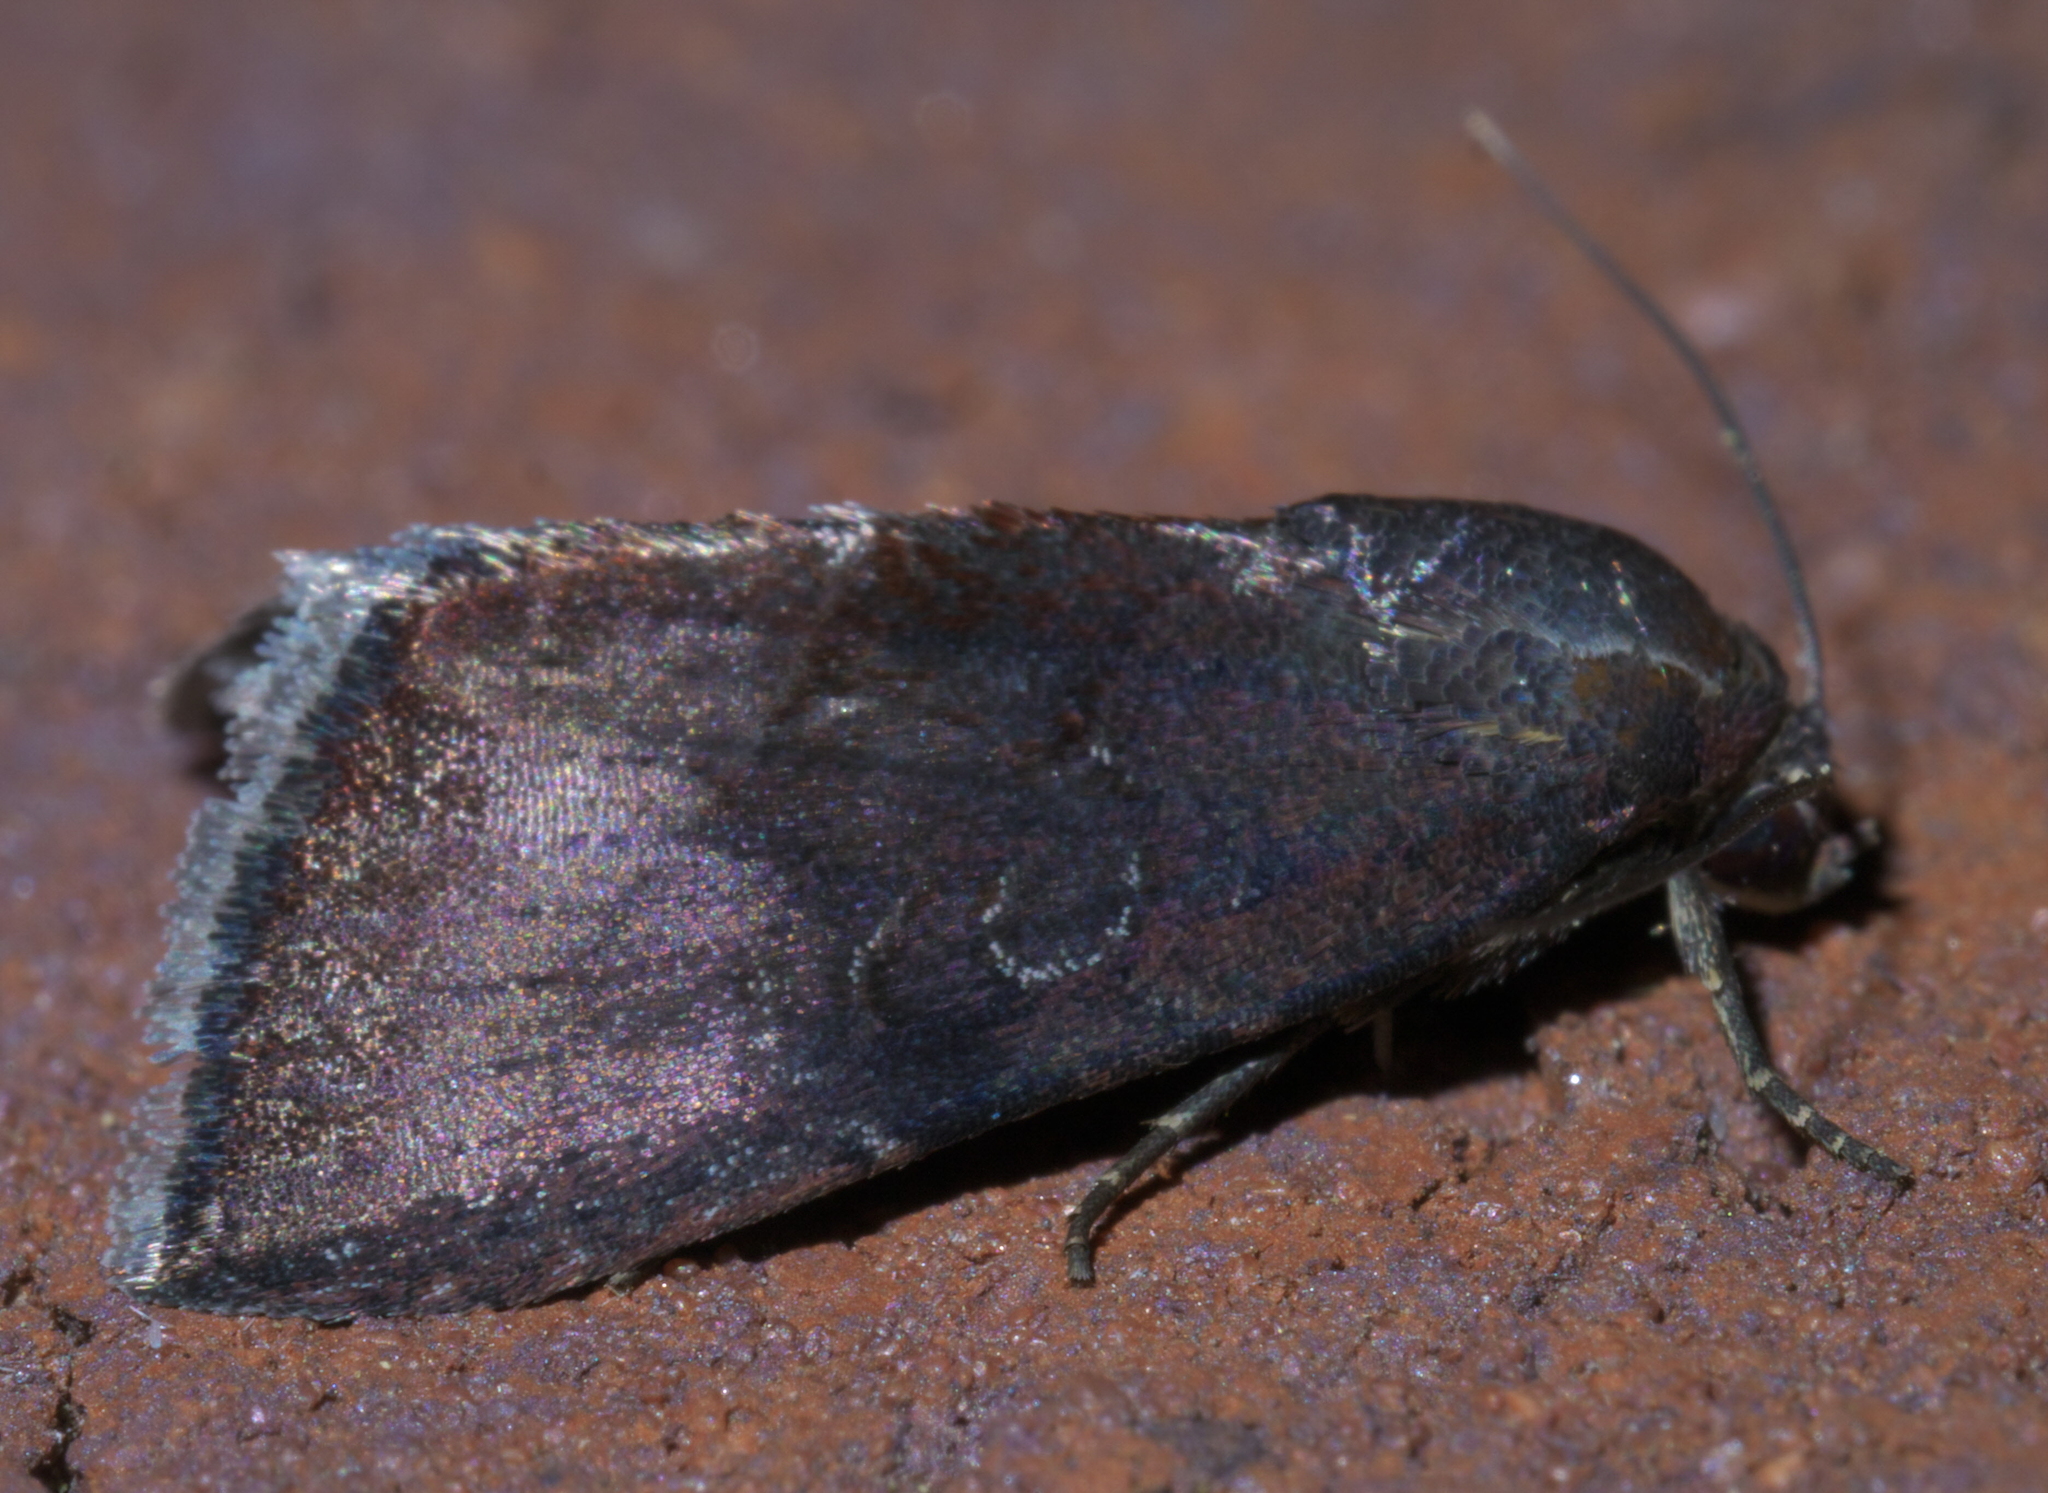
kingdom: Animalia
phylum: Arthropoda
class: Insecta
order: Lepidoptera
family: Noctuidae
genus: Galgula
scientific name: Galgula partita
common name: Wedgeling
